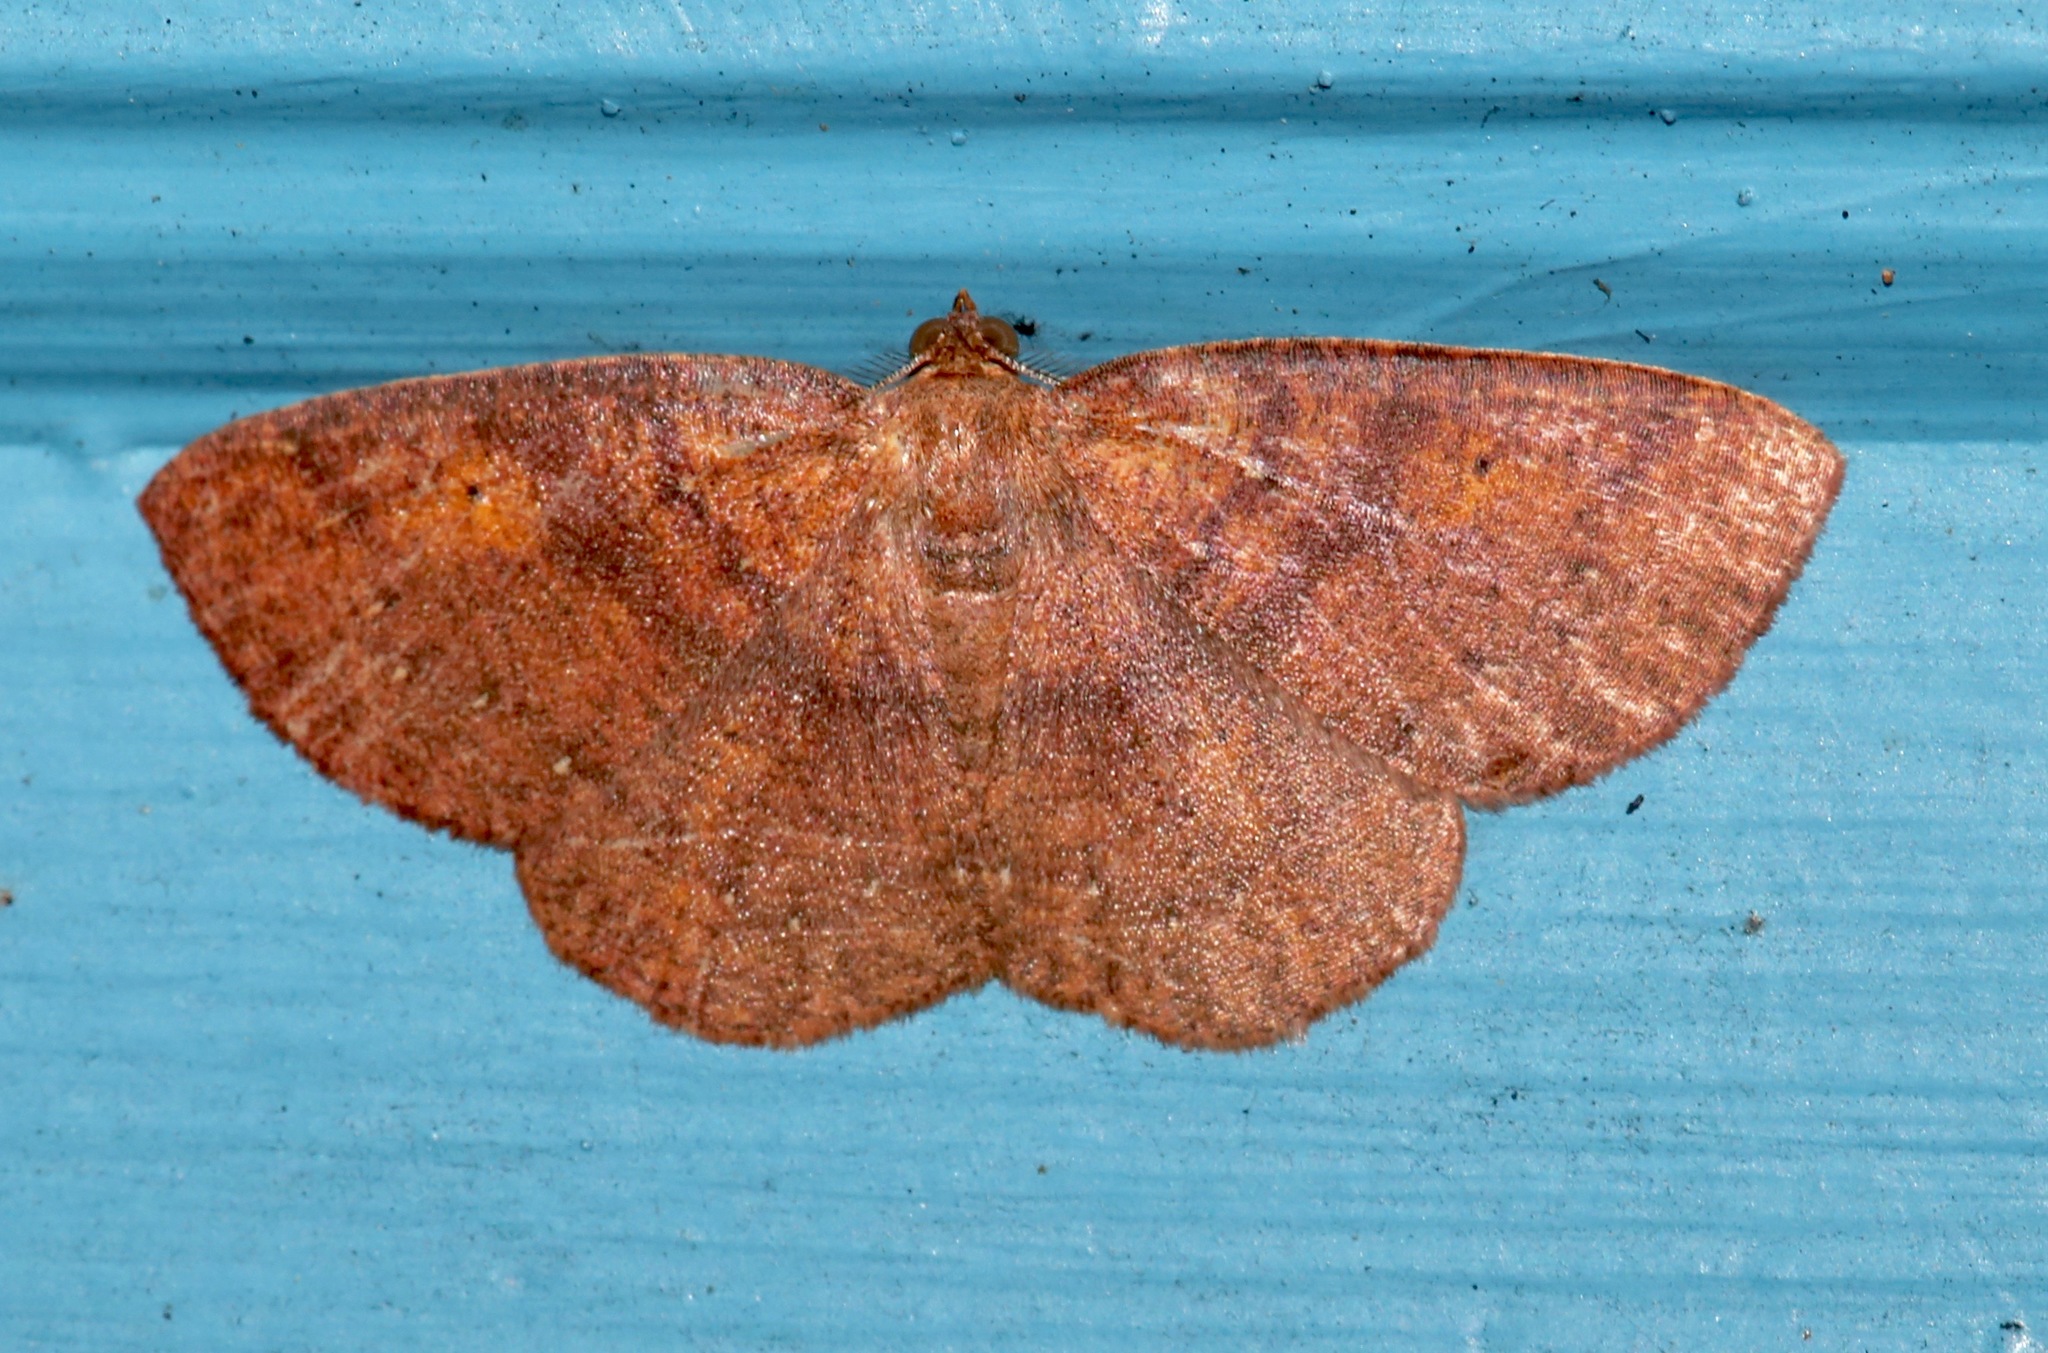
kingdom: Animalia
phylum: Arthropoda
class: Insecta
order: Lepidoptera
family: Geometridae
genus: Ilexia
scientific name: Ilexia intractata
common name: Black-dotted ruddy moth
